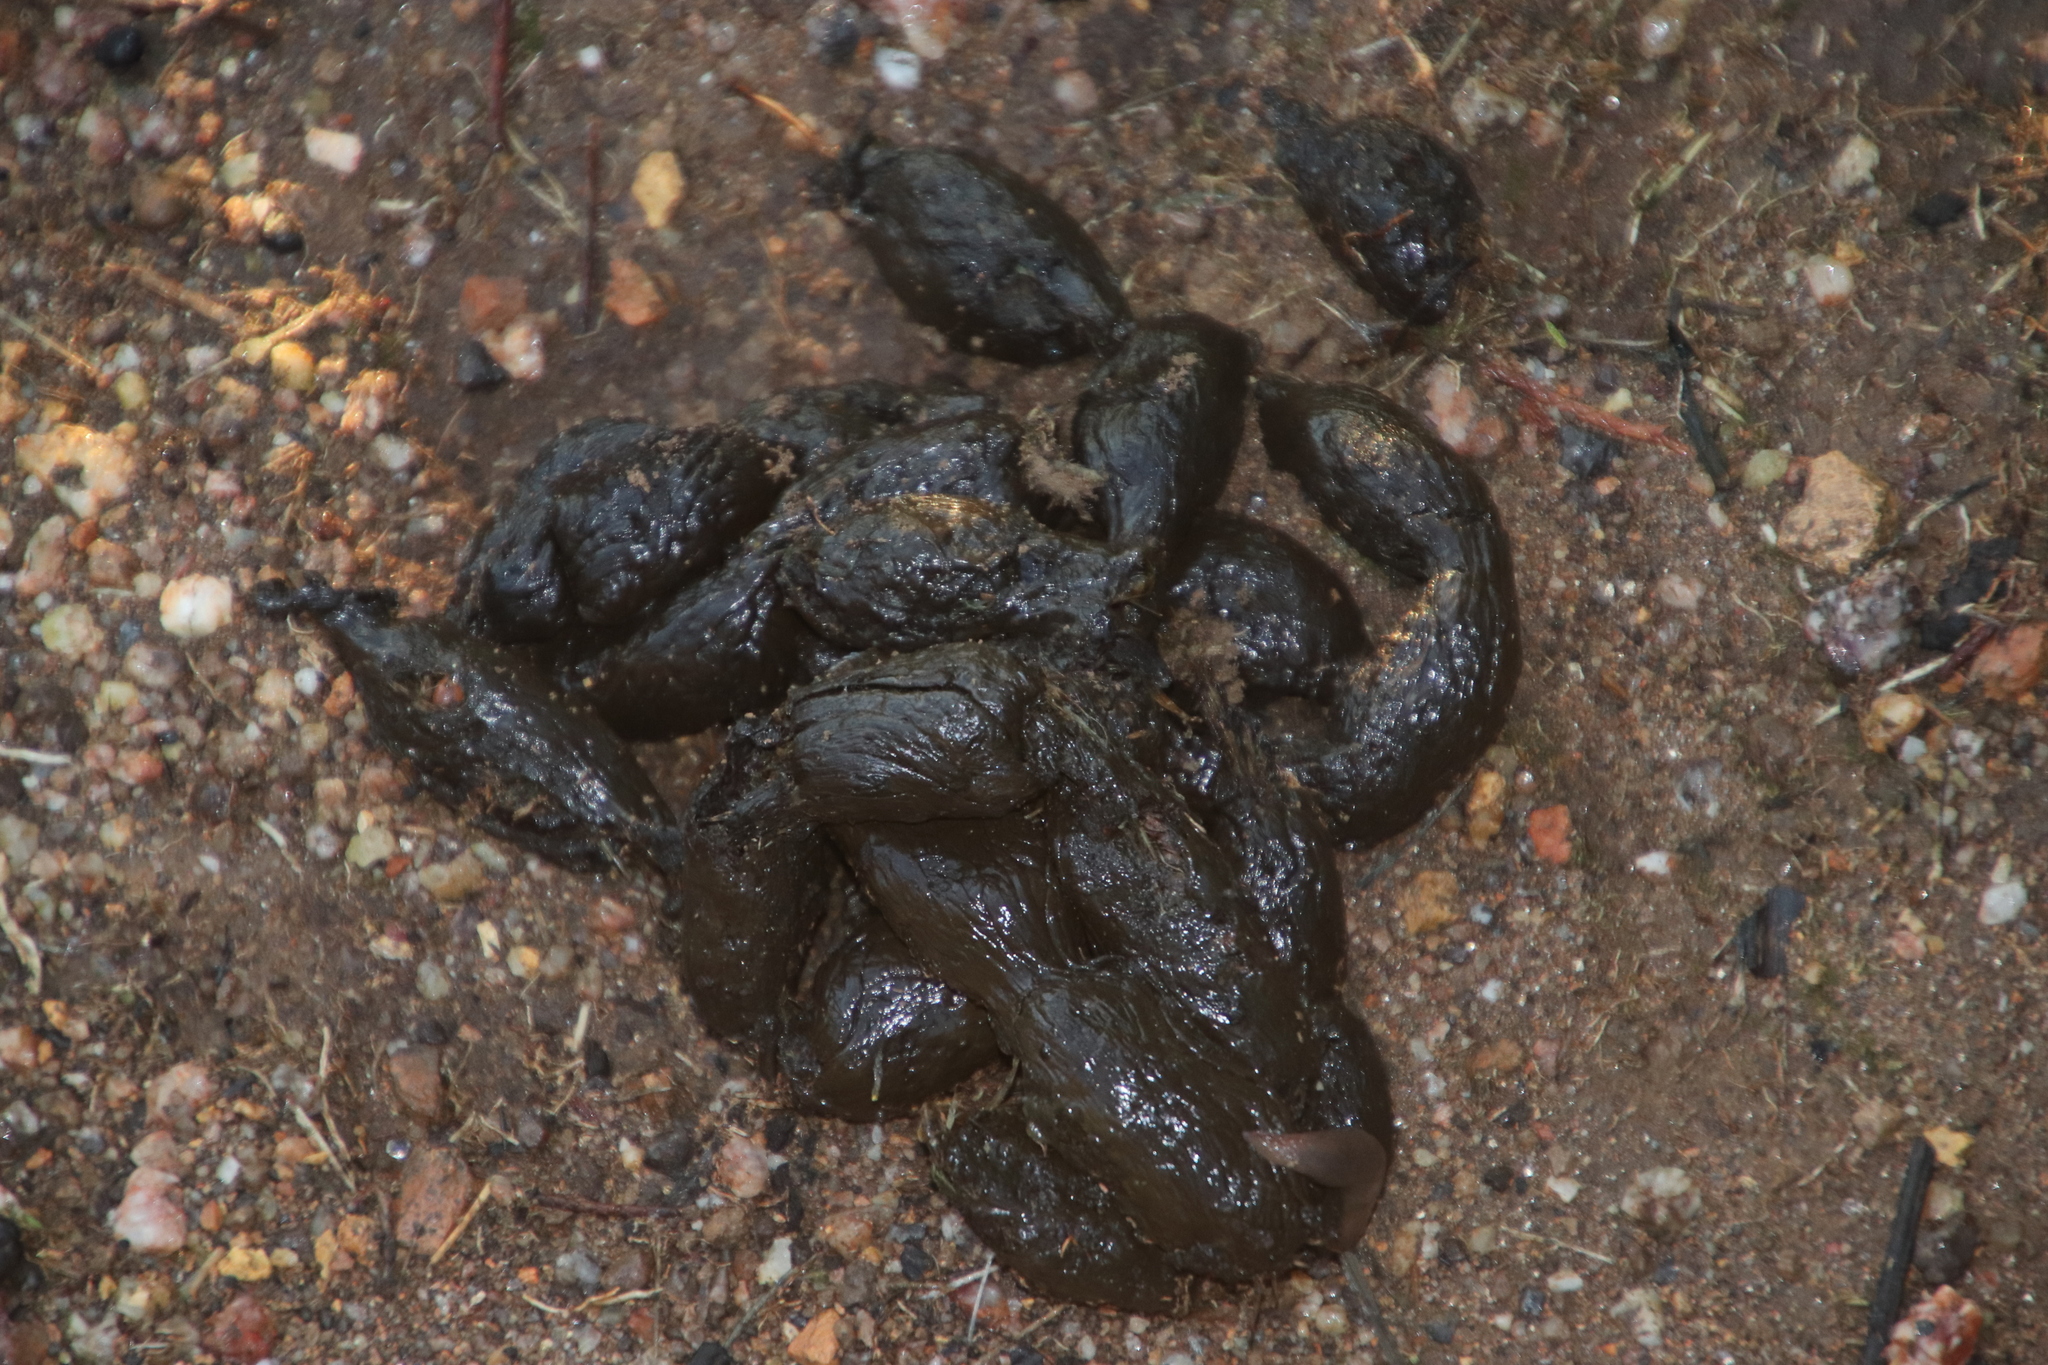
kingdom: Animalia
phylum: Chordata
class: Mammalia
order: Rodentia
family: Hystricidae
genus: Hystrix
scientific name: Hystrix africaeaustralis
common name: Cape porcupine
